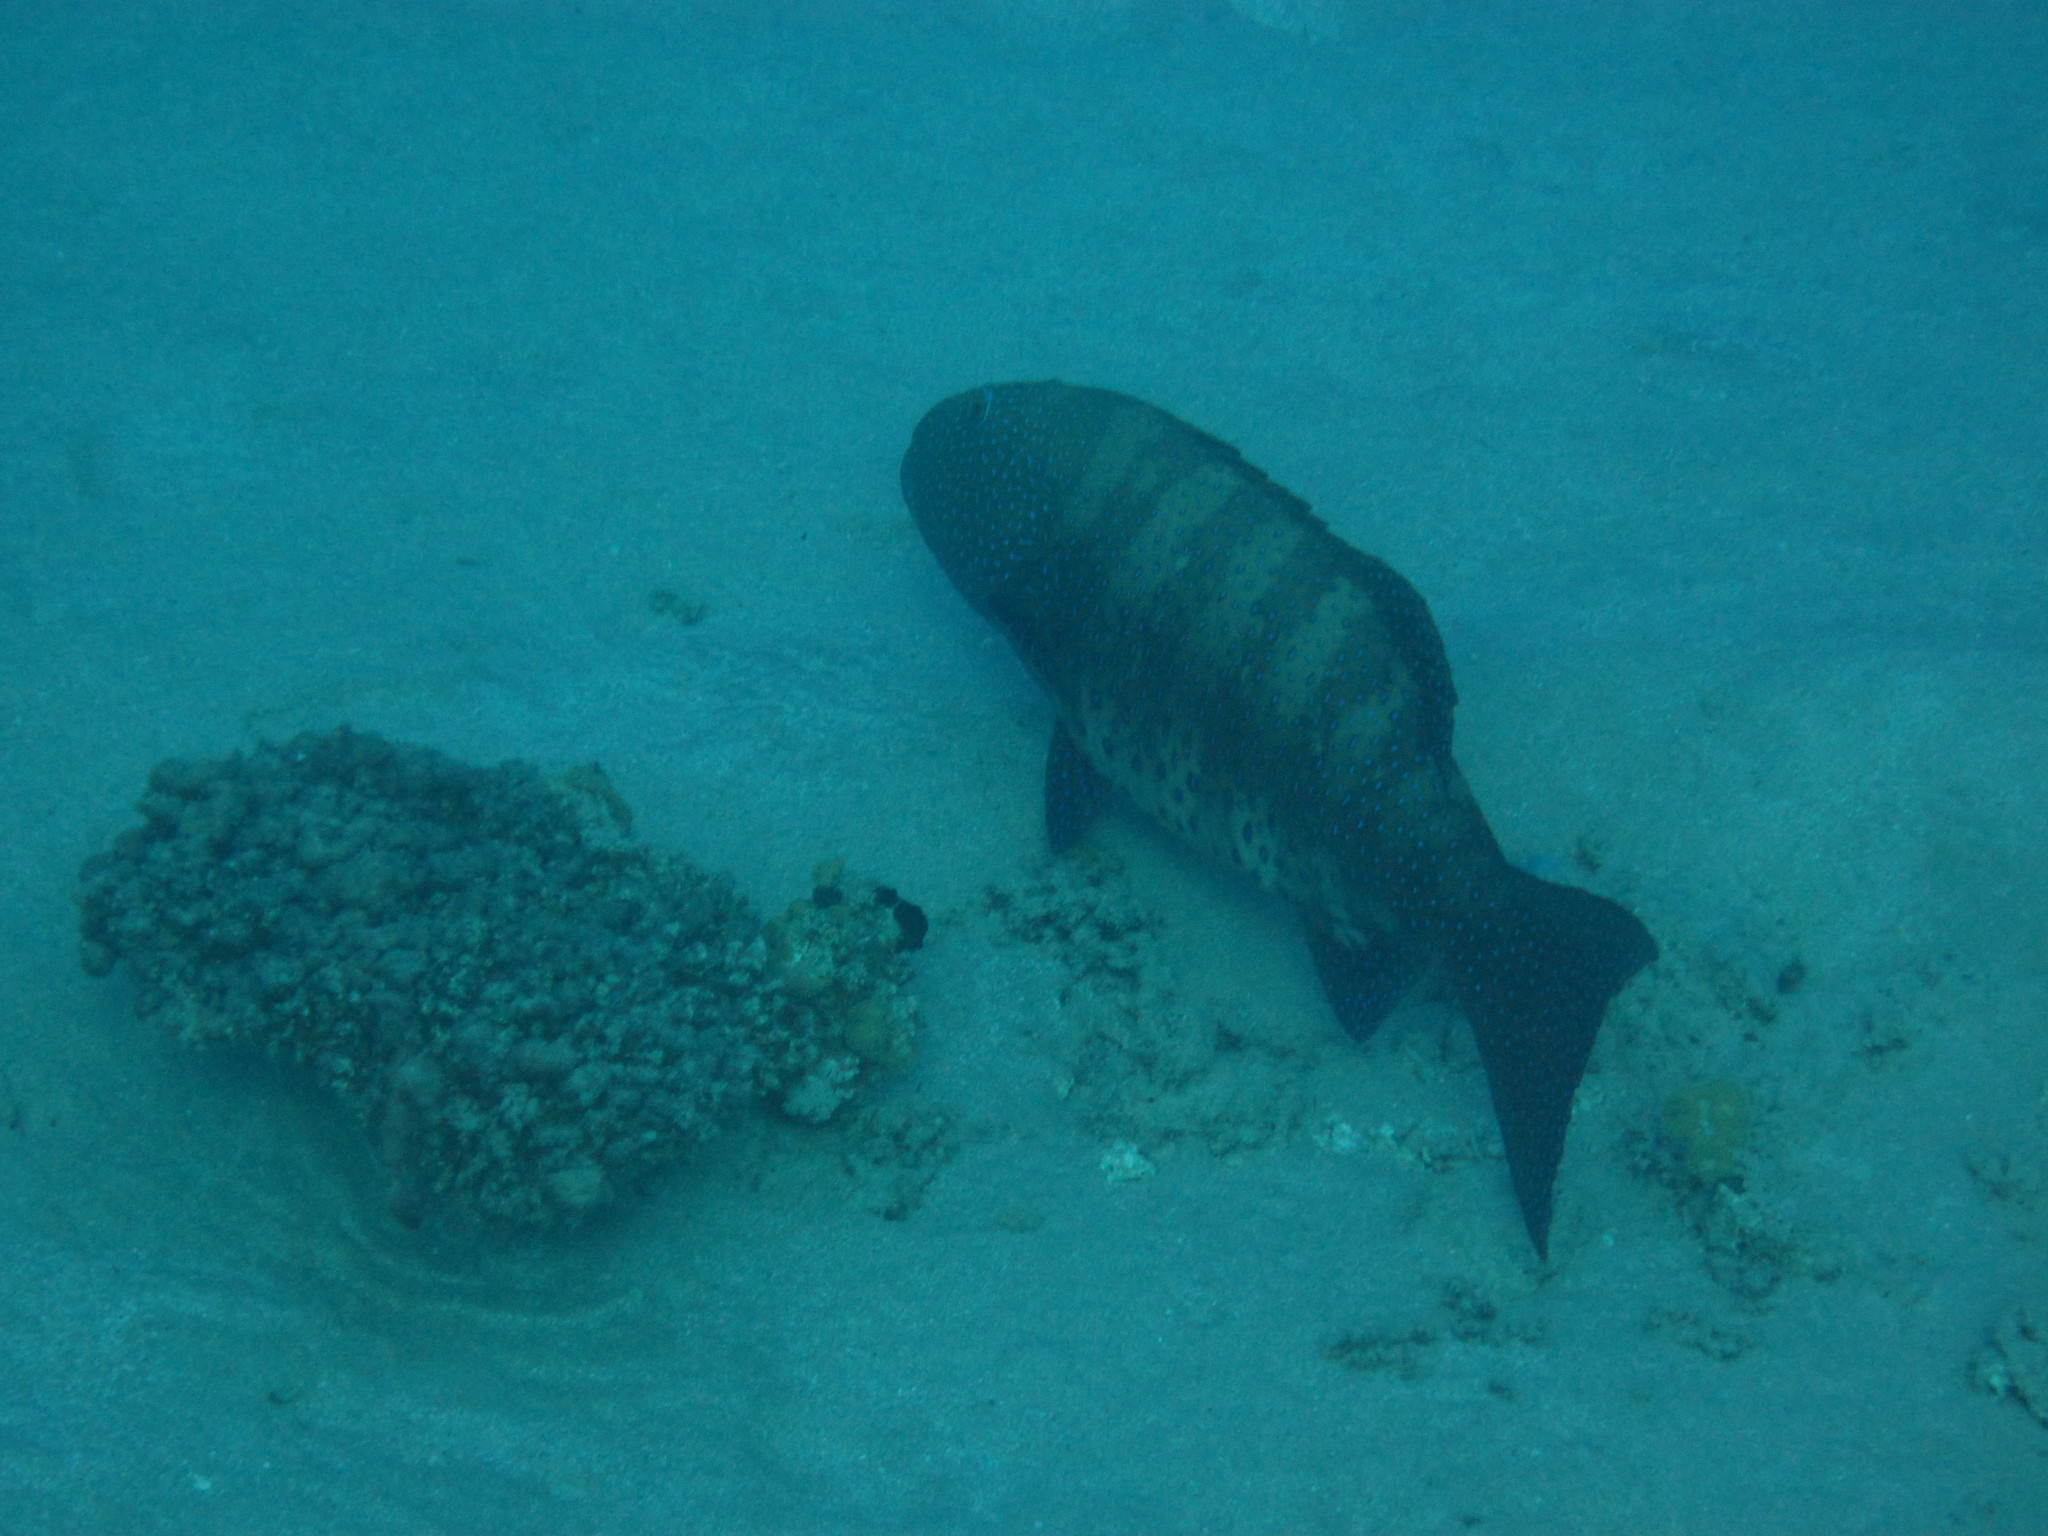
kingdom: Animalia
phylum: Chordata
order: Perciformes
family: Serranidae
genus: Plectropomus
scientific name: Plectropomus pessuliferus
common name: Roving coralgrouper
